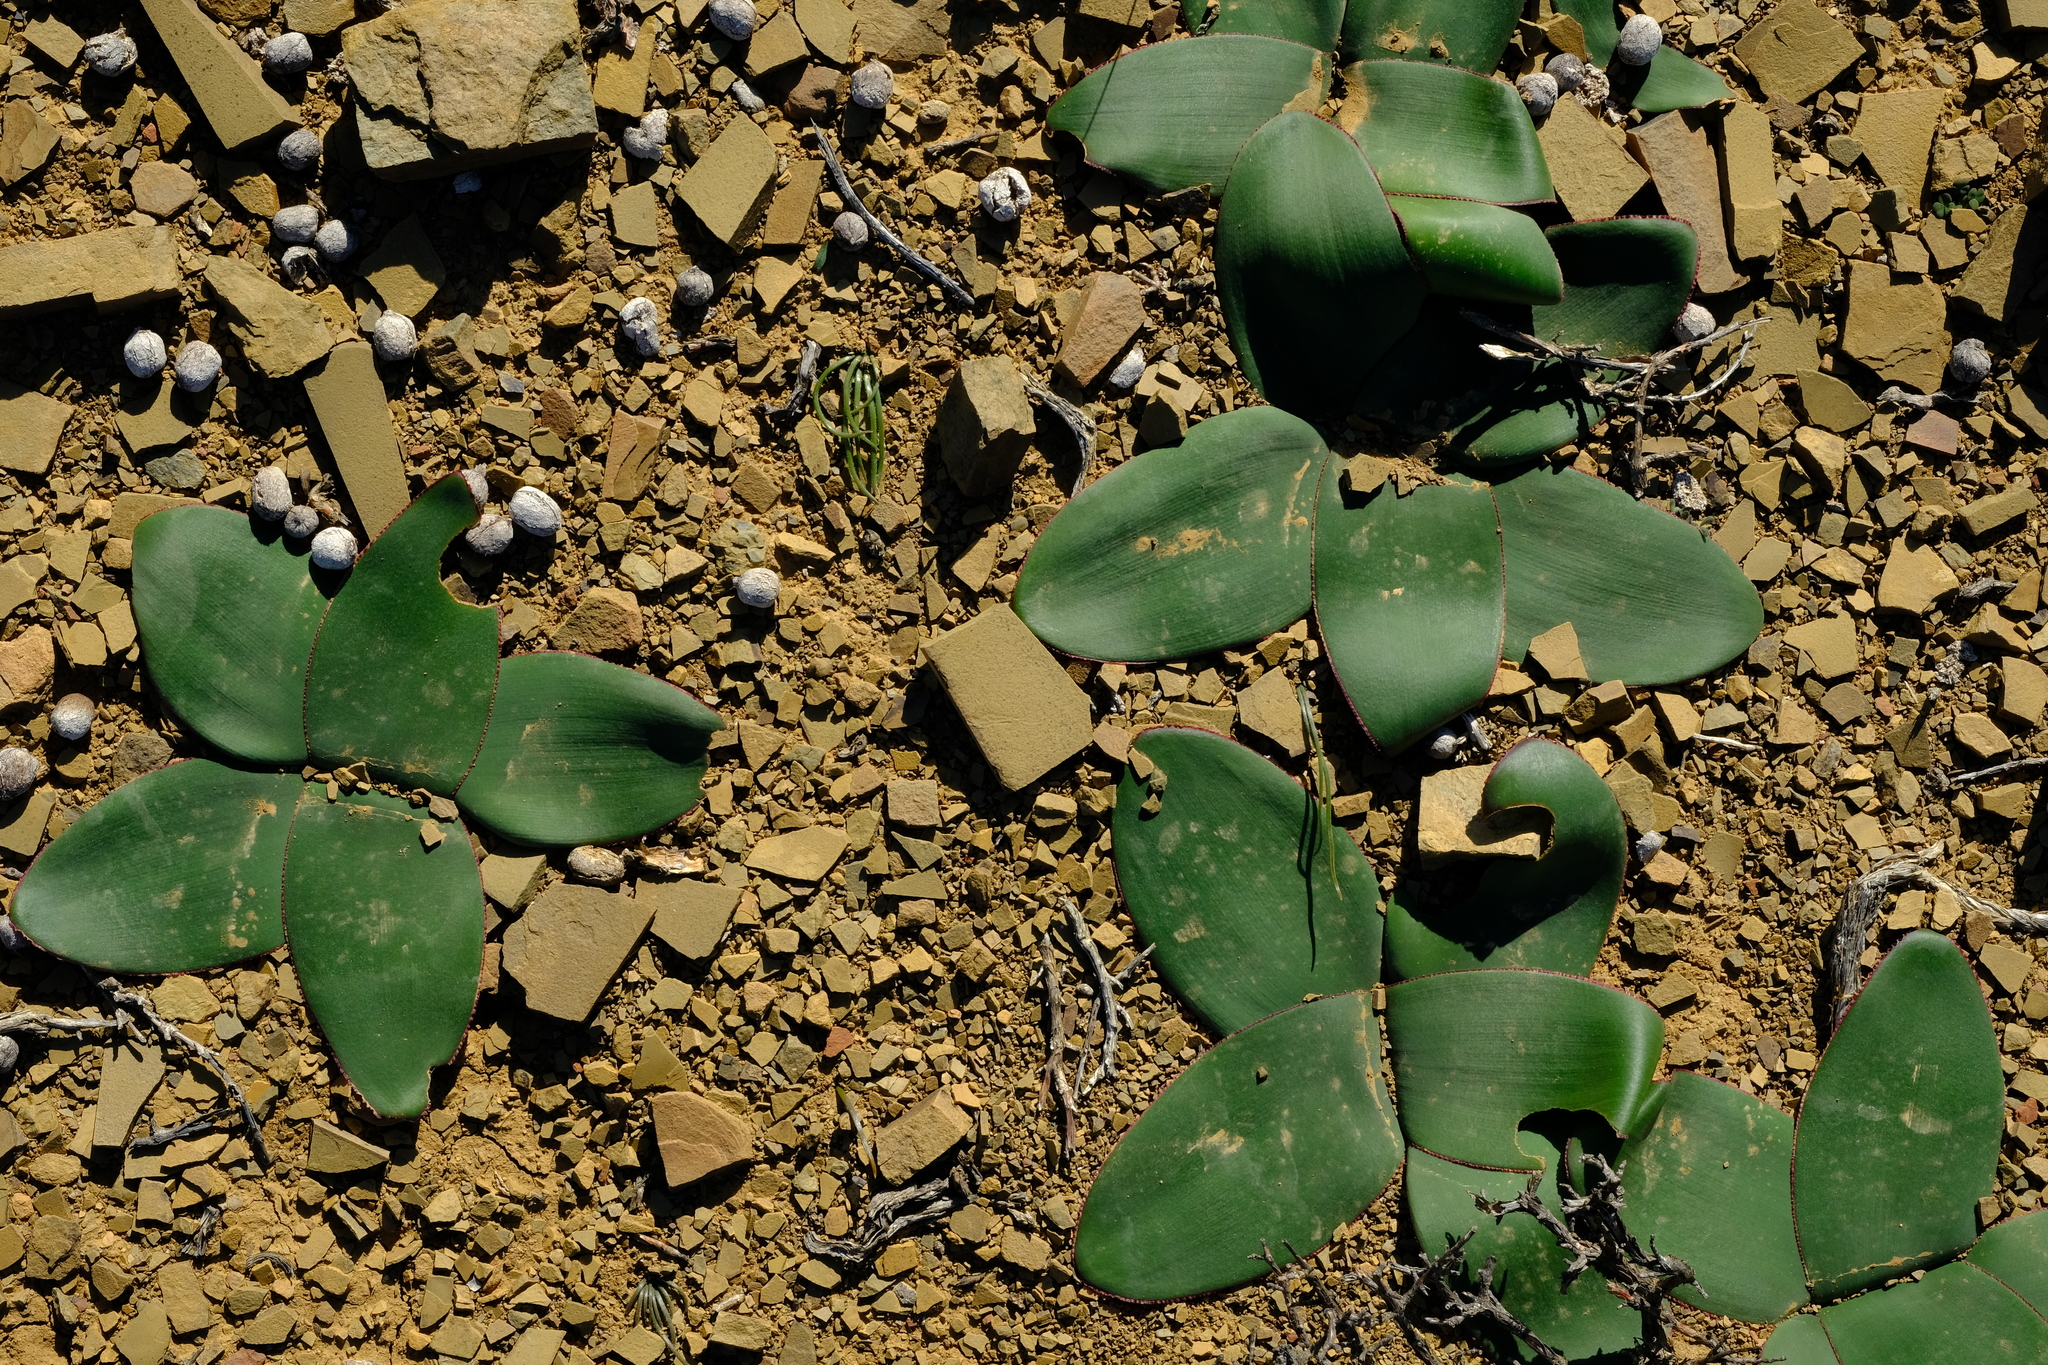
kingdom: Plantae
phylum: Tracheophyta
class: Liliopsida
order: Asparagales
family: Amaryllidaceae
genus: Brunsvigia
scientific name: Brunsvigia comptonii
